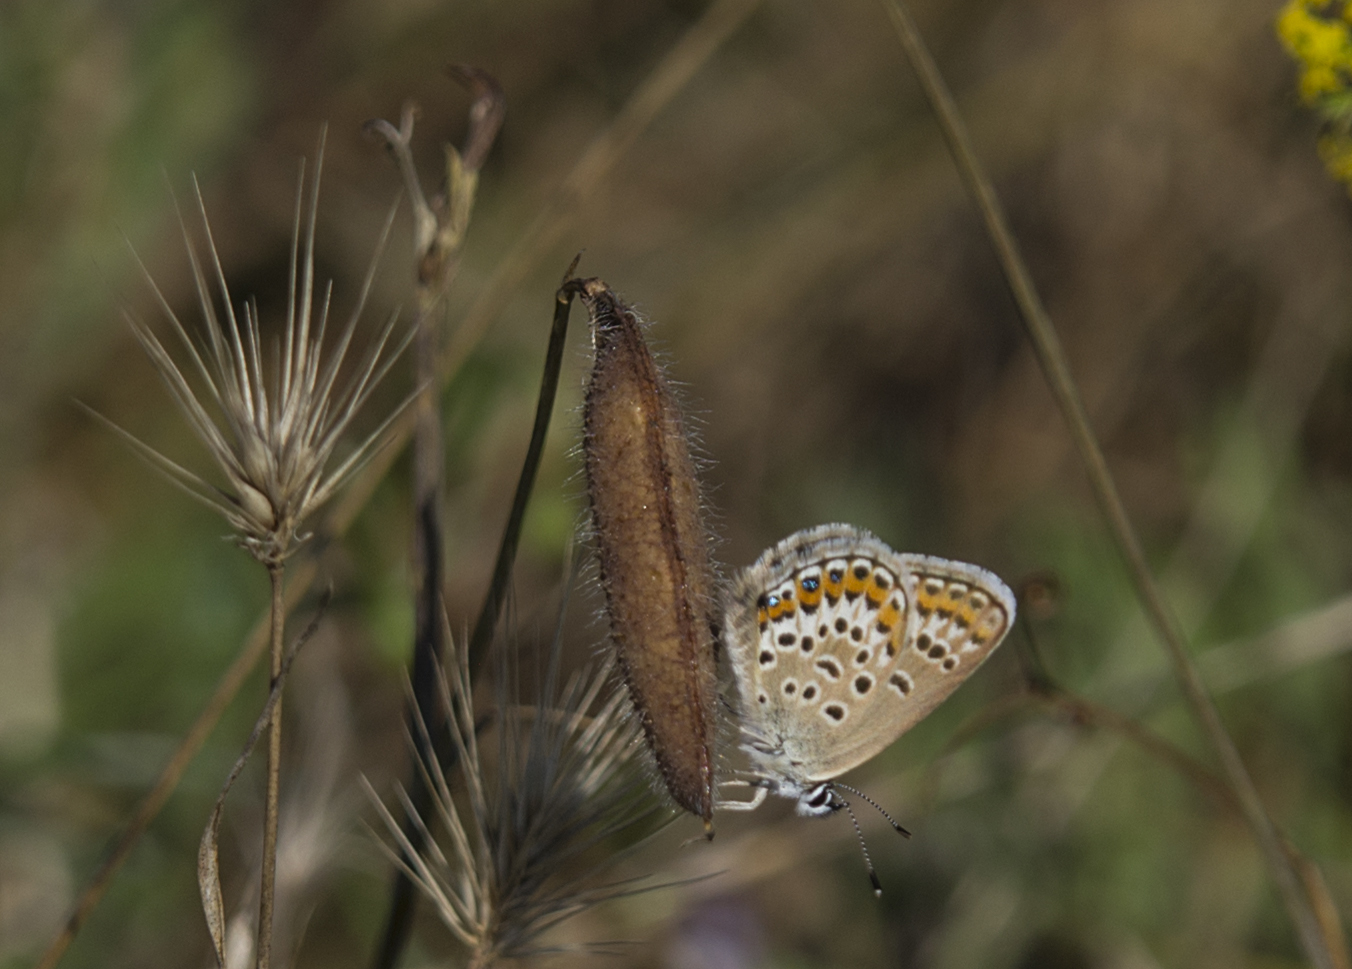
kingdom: Animalia
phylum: Arthropoda
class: Insecta
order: Lepidoptera
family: Lycaenidae
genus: Plebejus
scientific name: Plebejus argus
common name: Silver-studded blue
